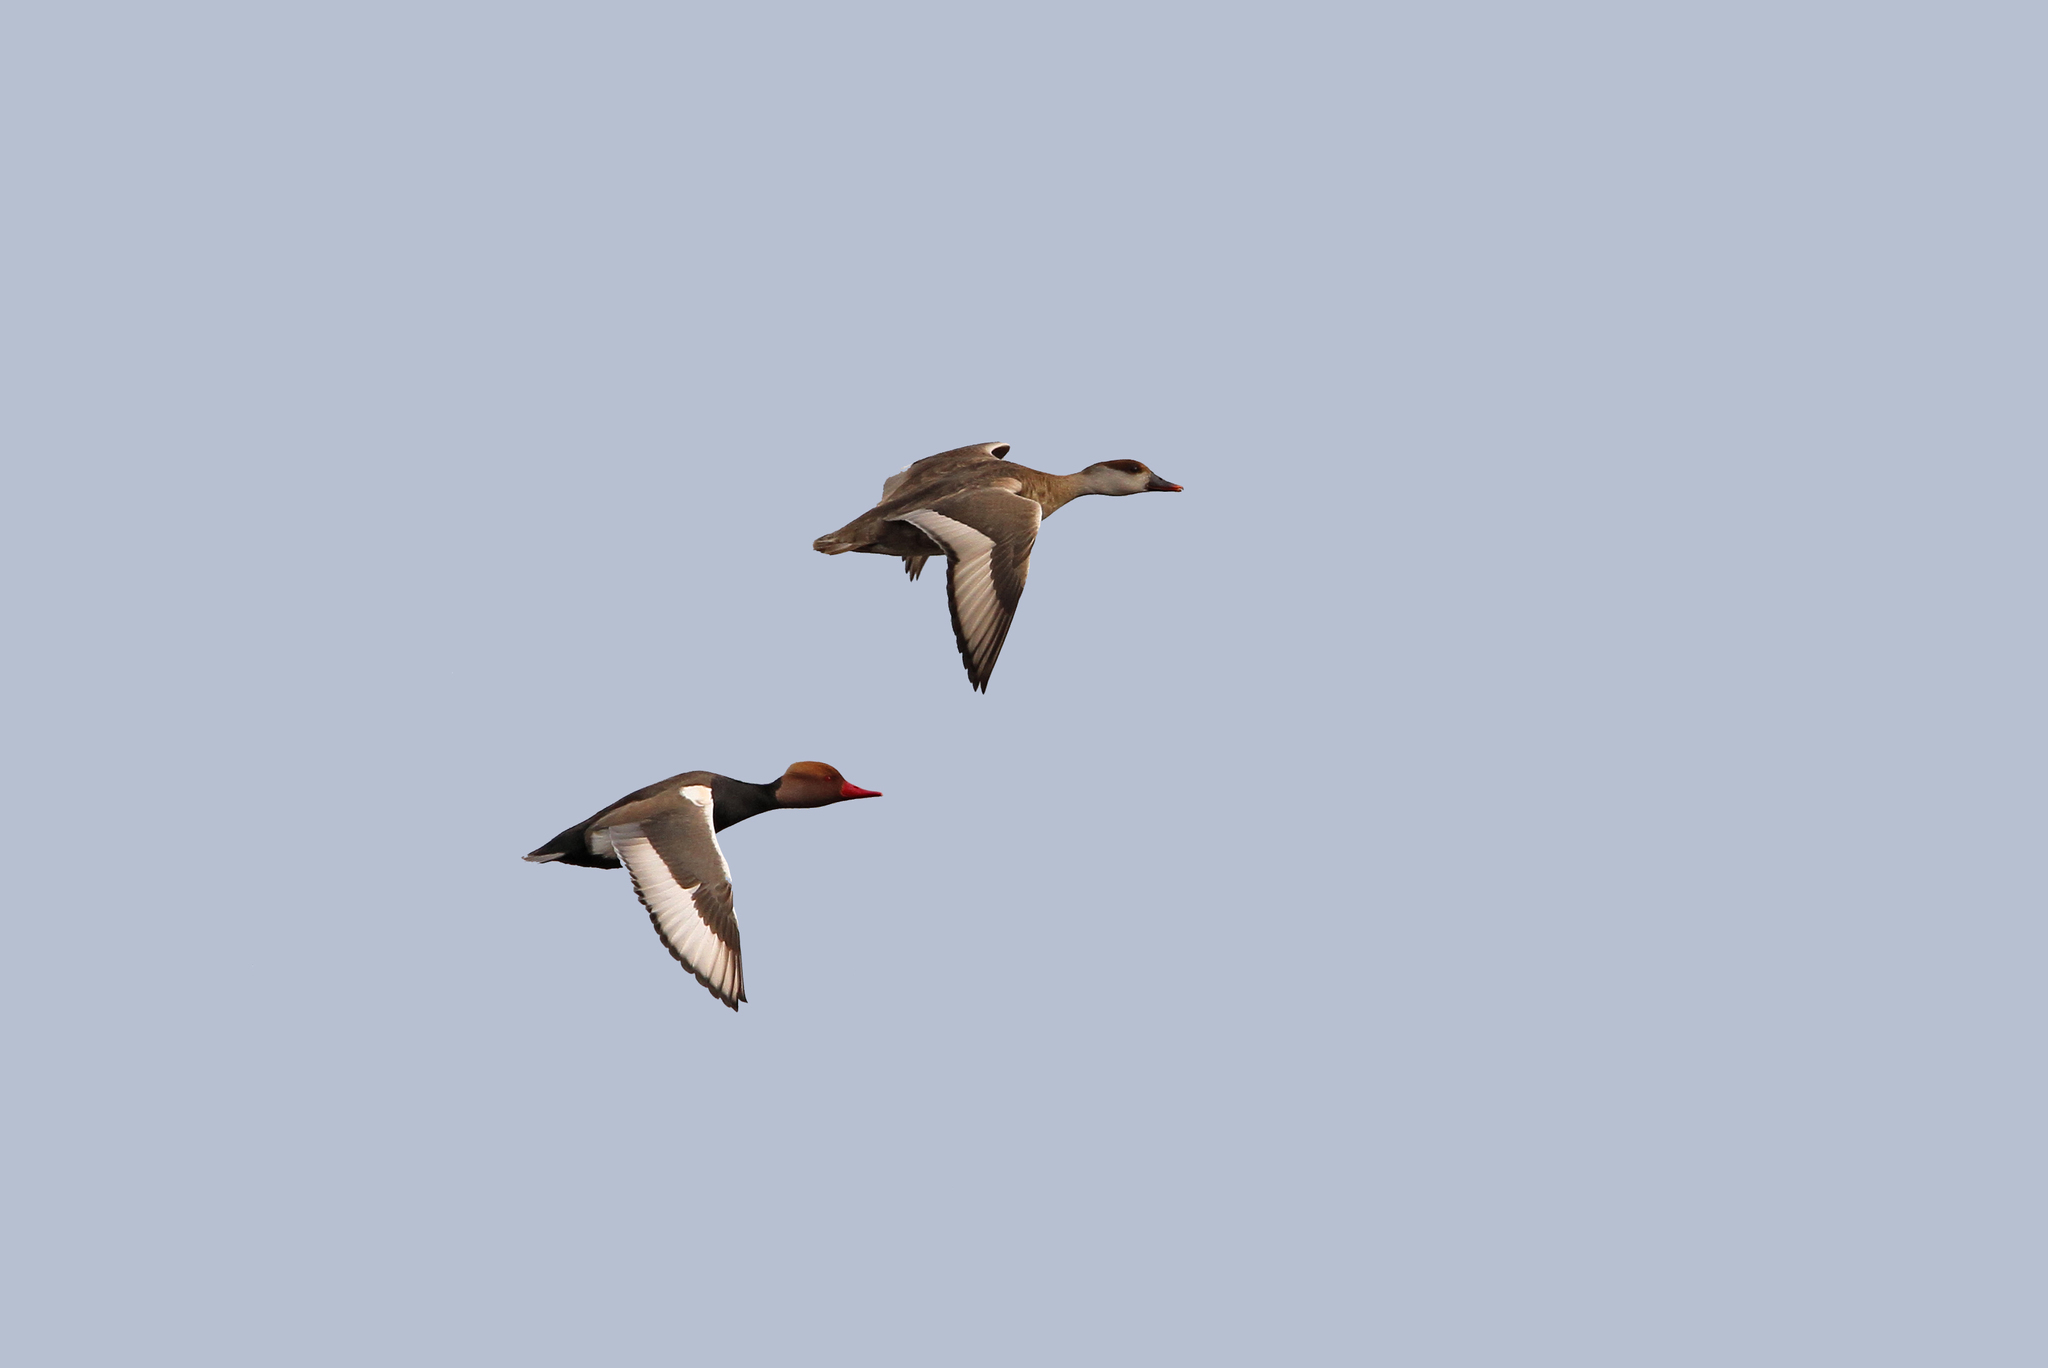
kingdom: Animalia
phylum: Chordata
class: Aves
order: Anseriformes
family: Anatidae
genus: Netta
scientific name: Netta rufina
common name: Red-crested pochard
